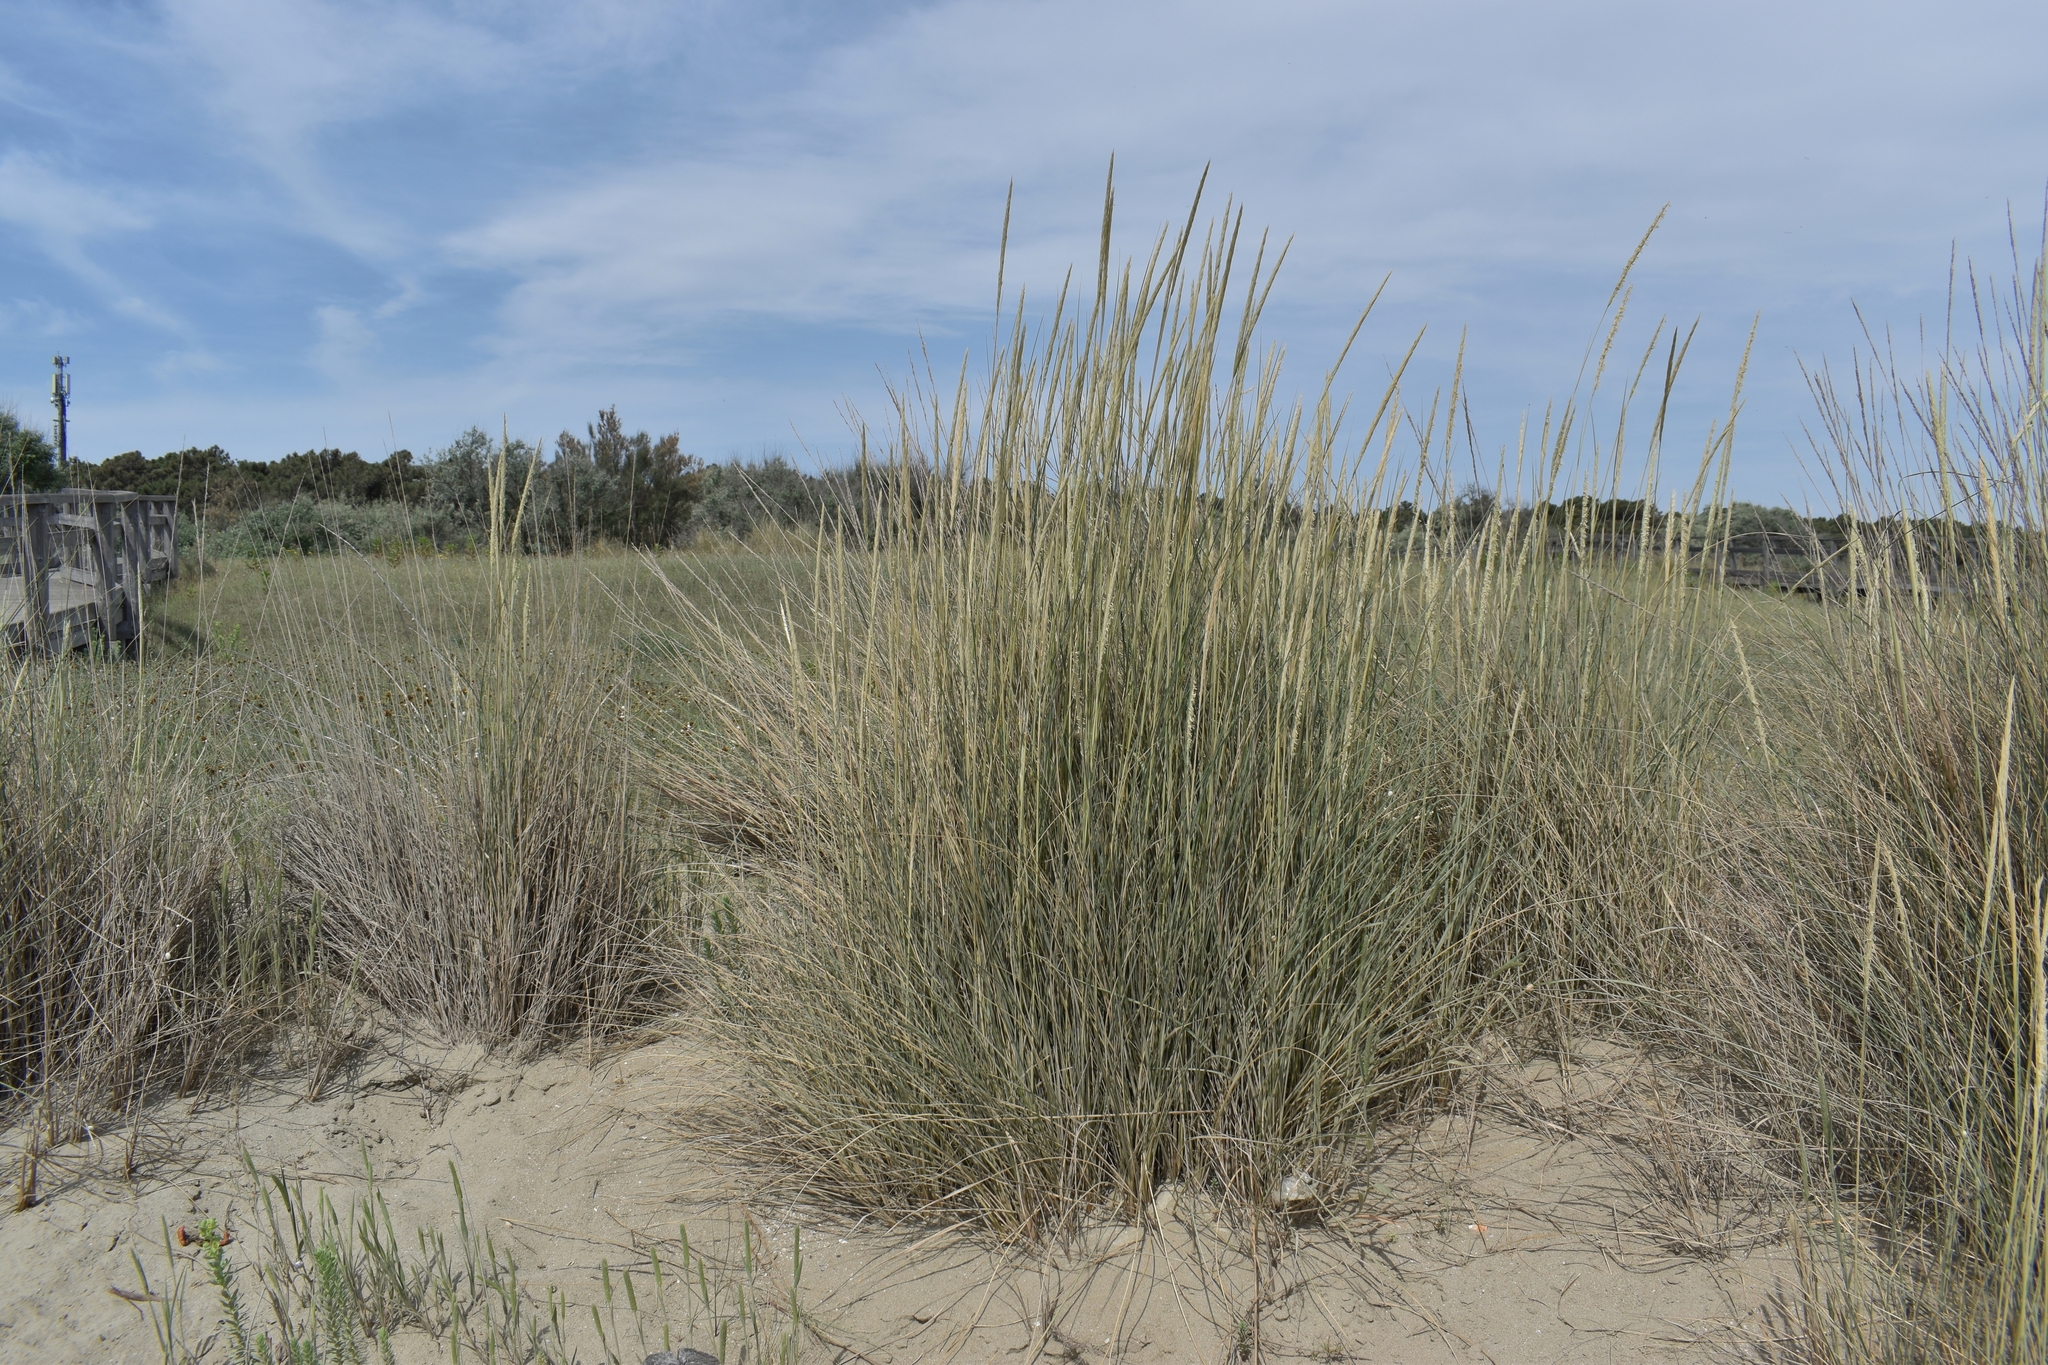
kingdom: Plantae
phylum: Tracheophyta
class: Liliopsida
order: Poales
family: Poaceae
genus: Calamagrostis
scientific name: Calamagrostis arenaria
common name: European beachgrass
